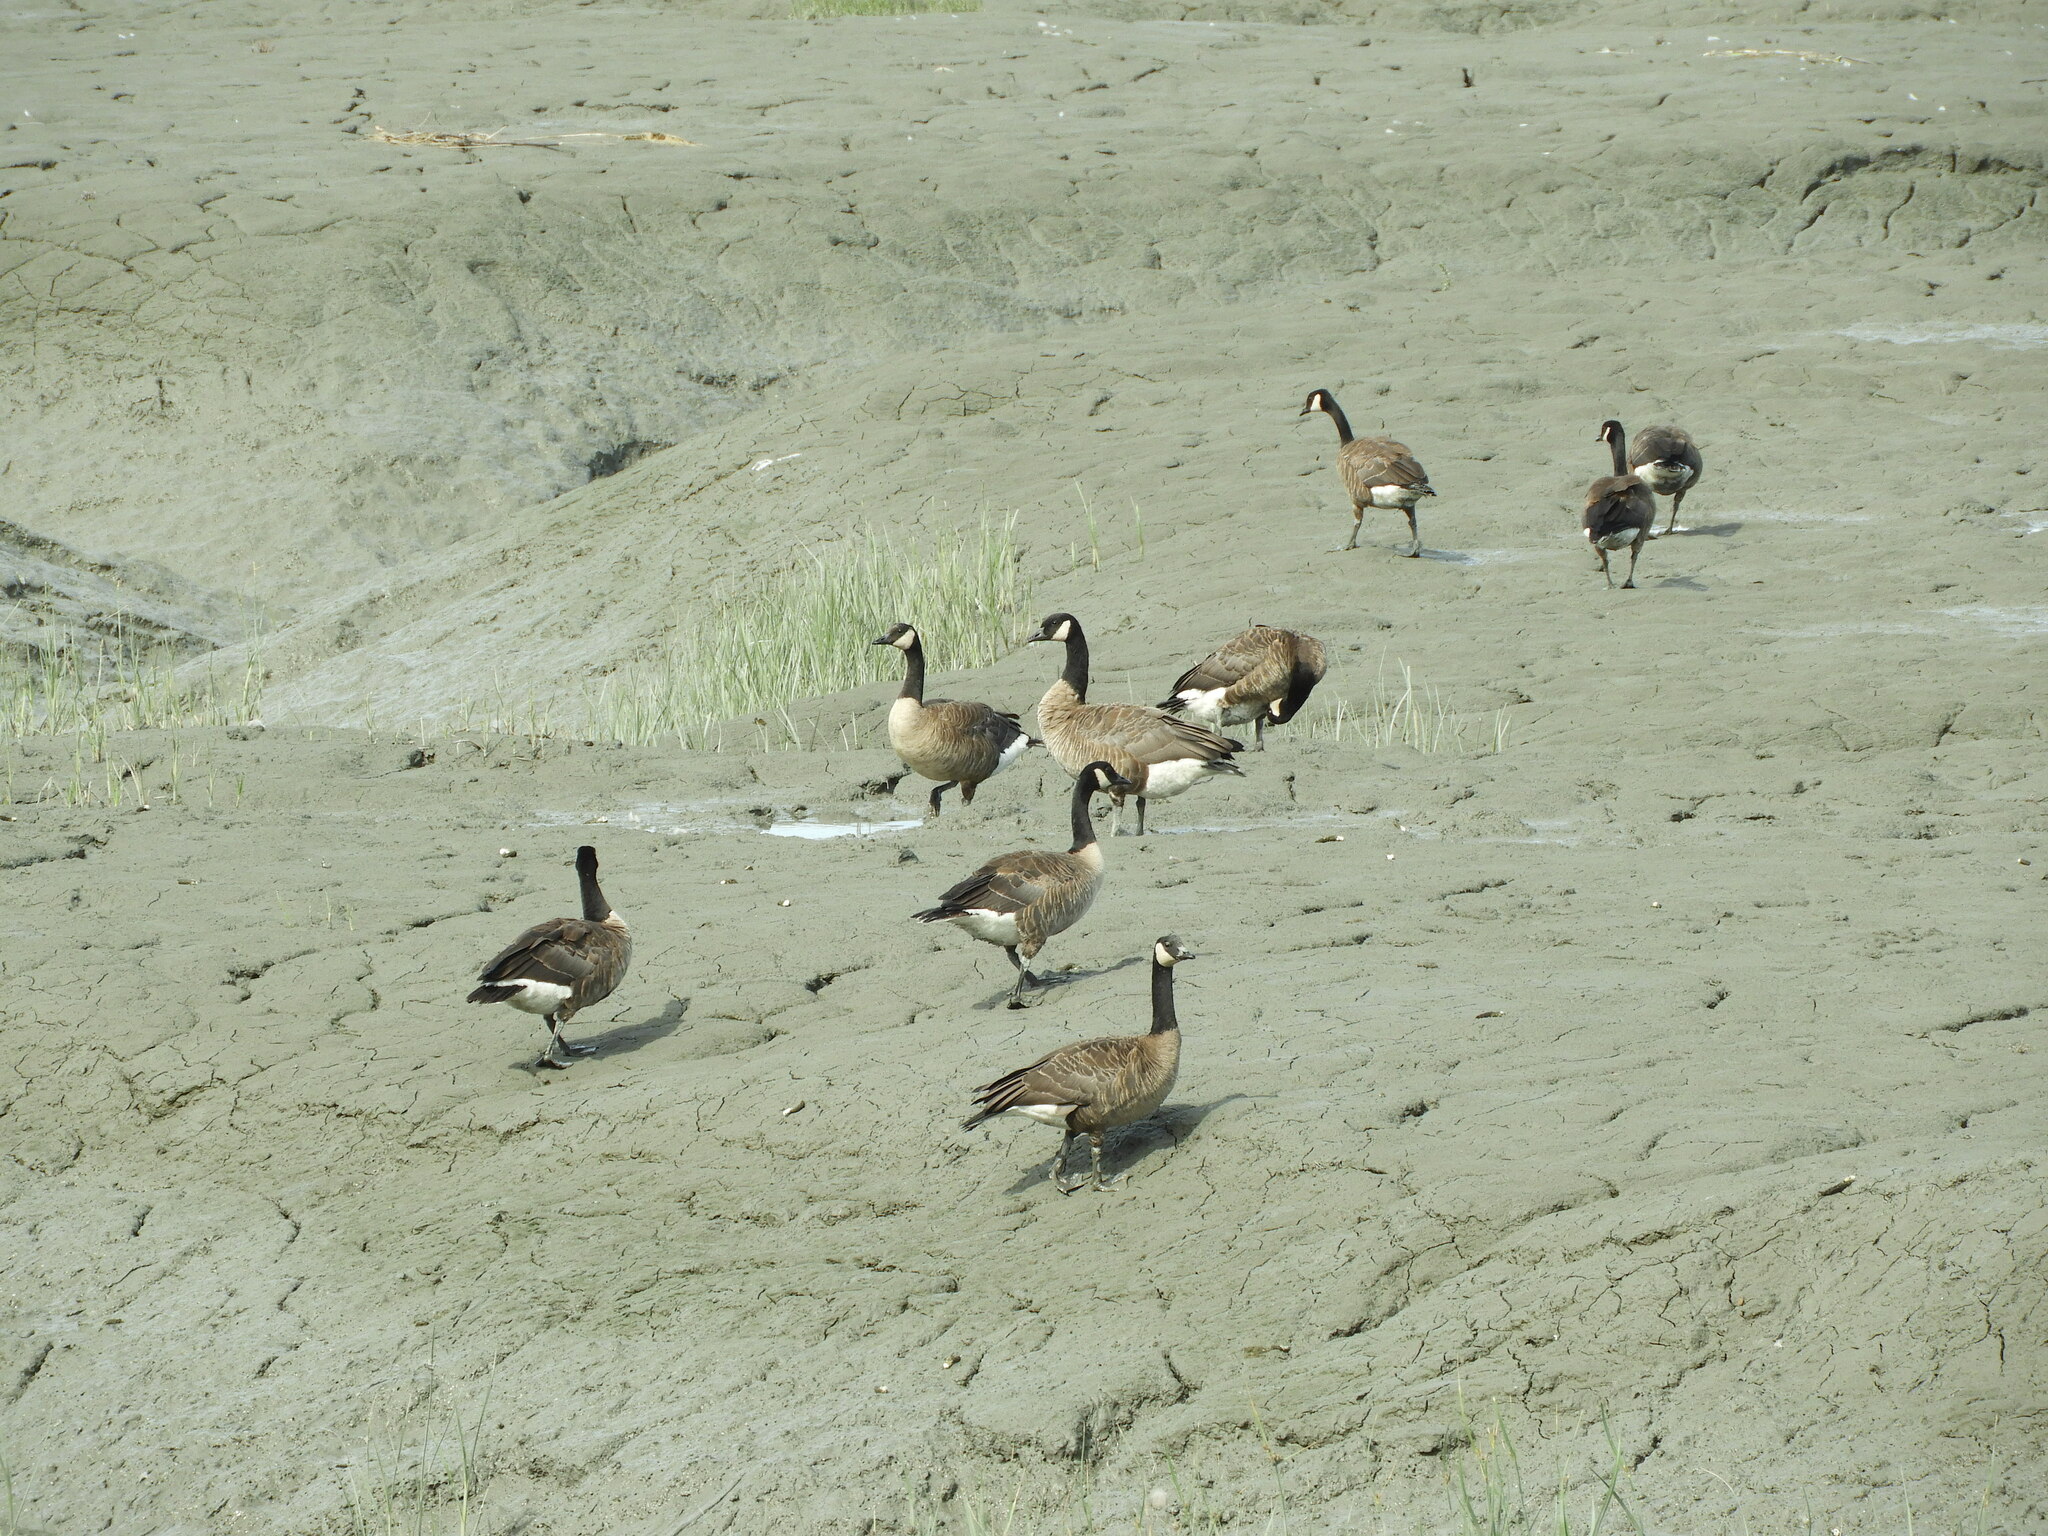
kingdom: Animalia
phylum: Chordata
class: Aves
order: Anseriformes
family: Anatidae
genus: Branta
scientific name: Branta canadensis
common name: Canada goose
